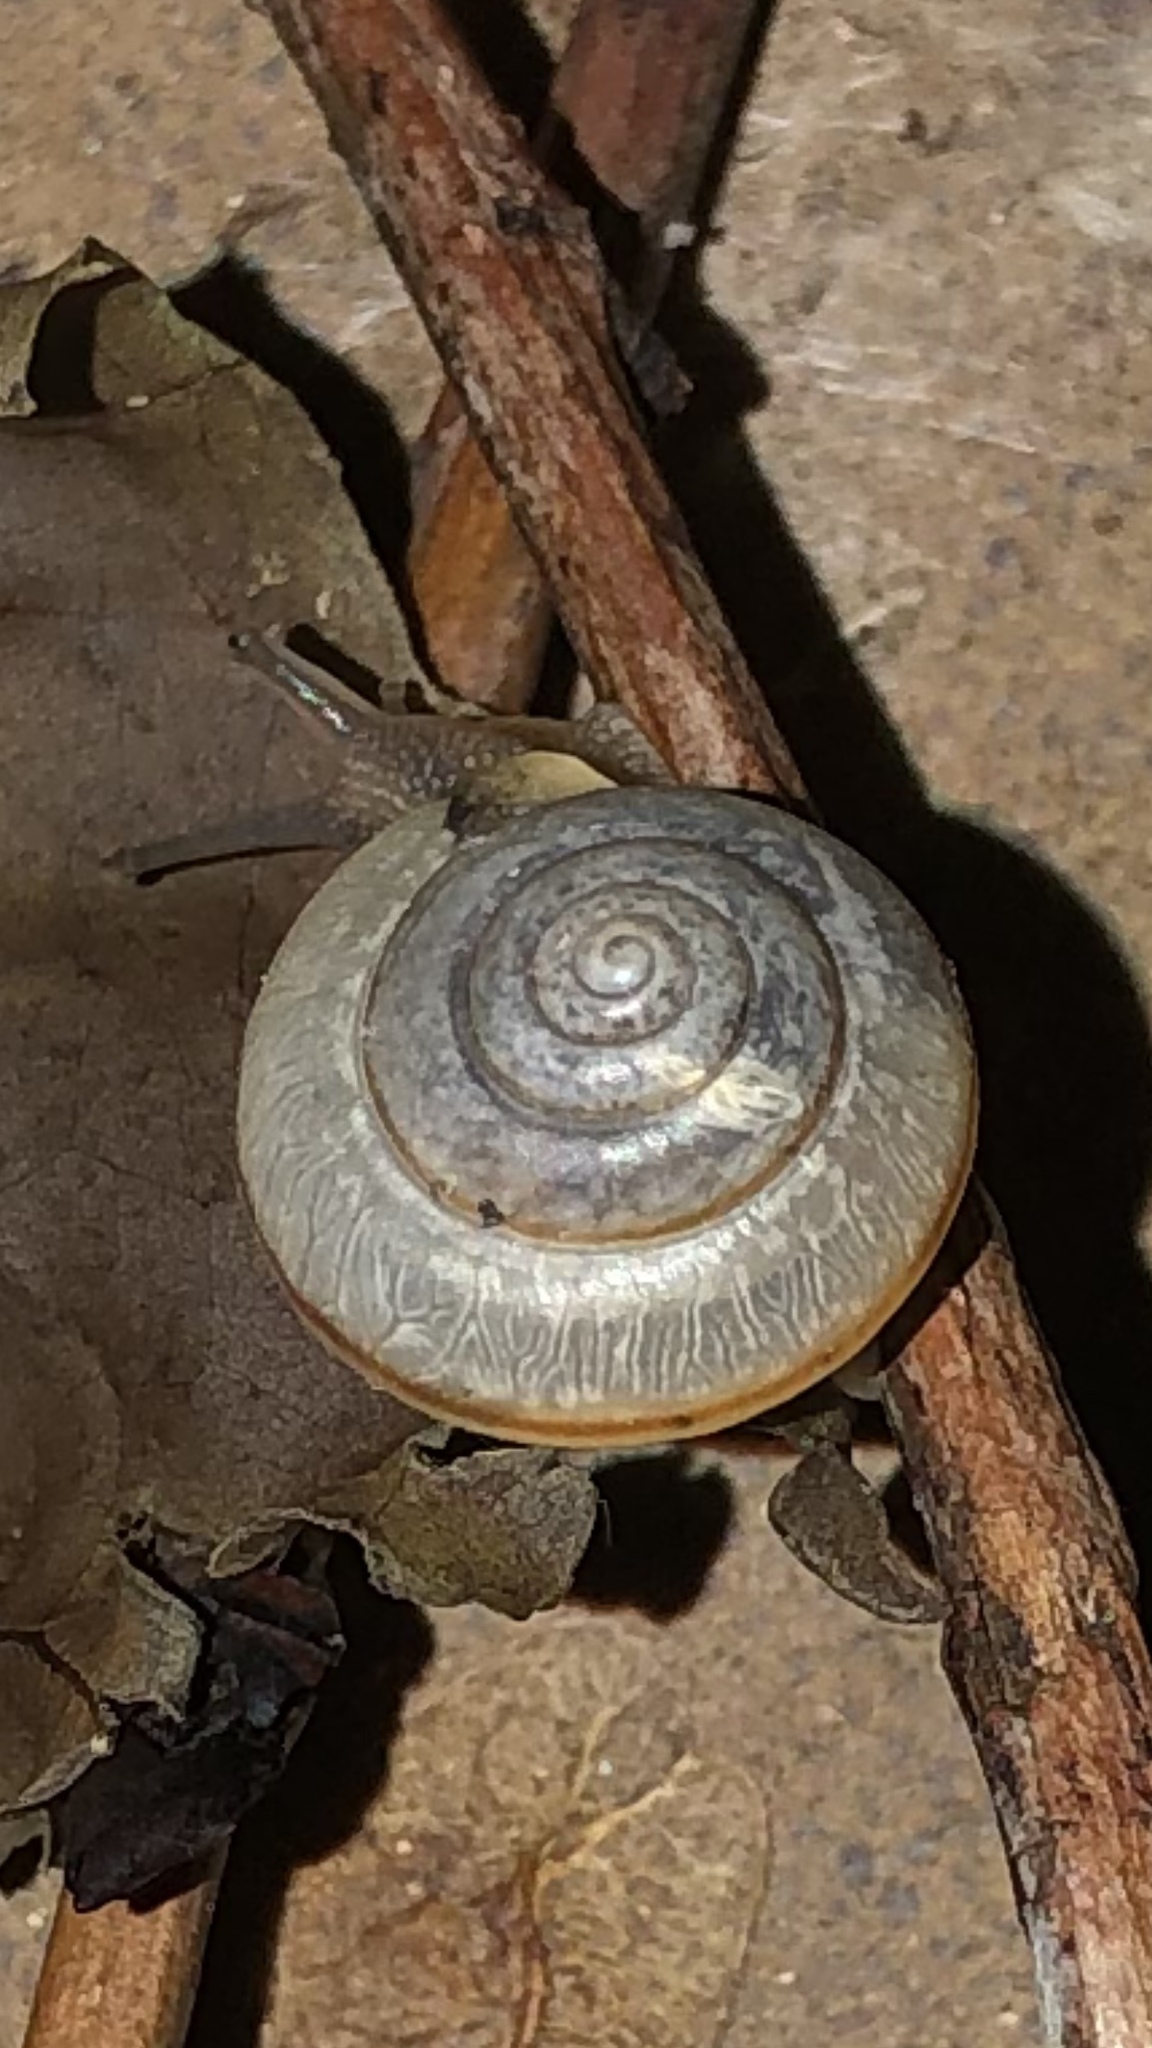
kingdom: Animalia
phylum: Mollusca
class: Gastropoda
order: Stylommatophora
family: Camaenidae
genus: Bradybaena
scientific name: Bradybaena similaris
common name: Asian trampsnail
